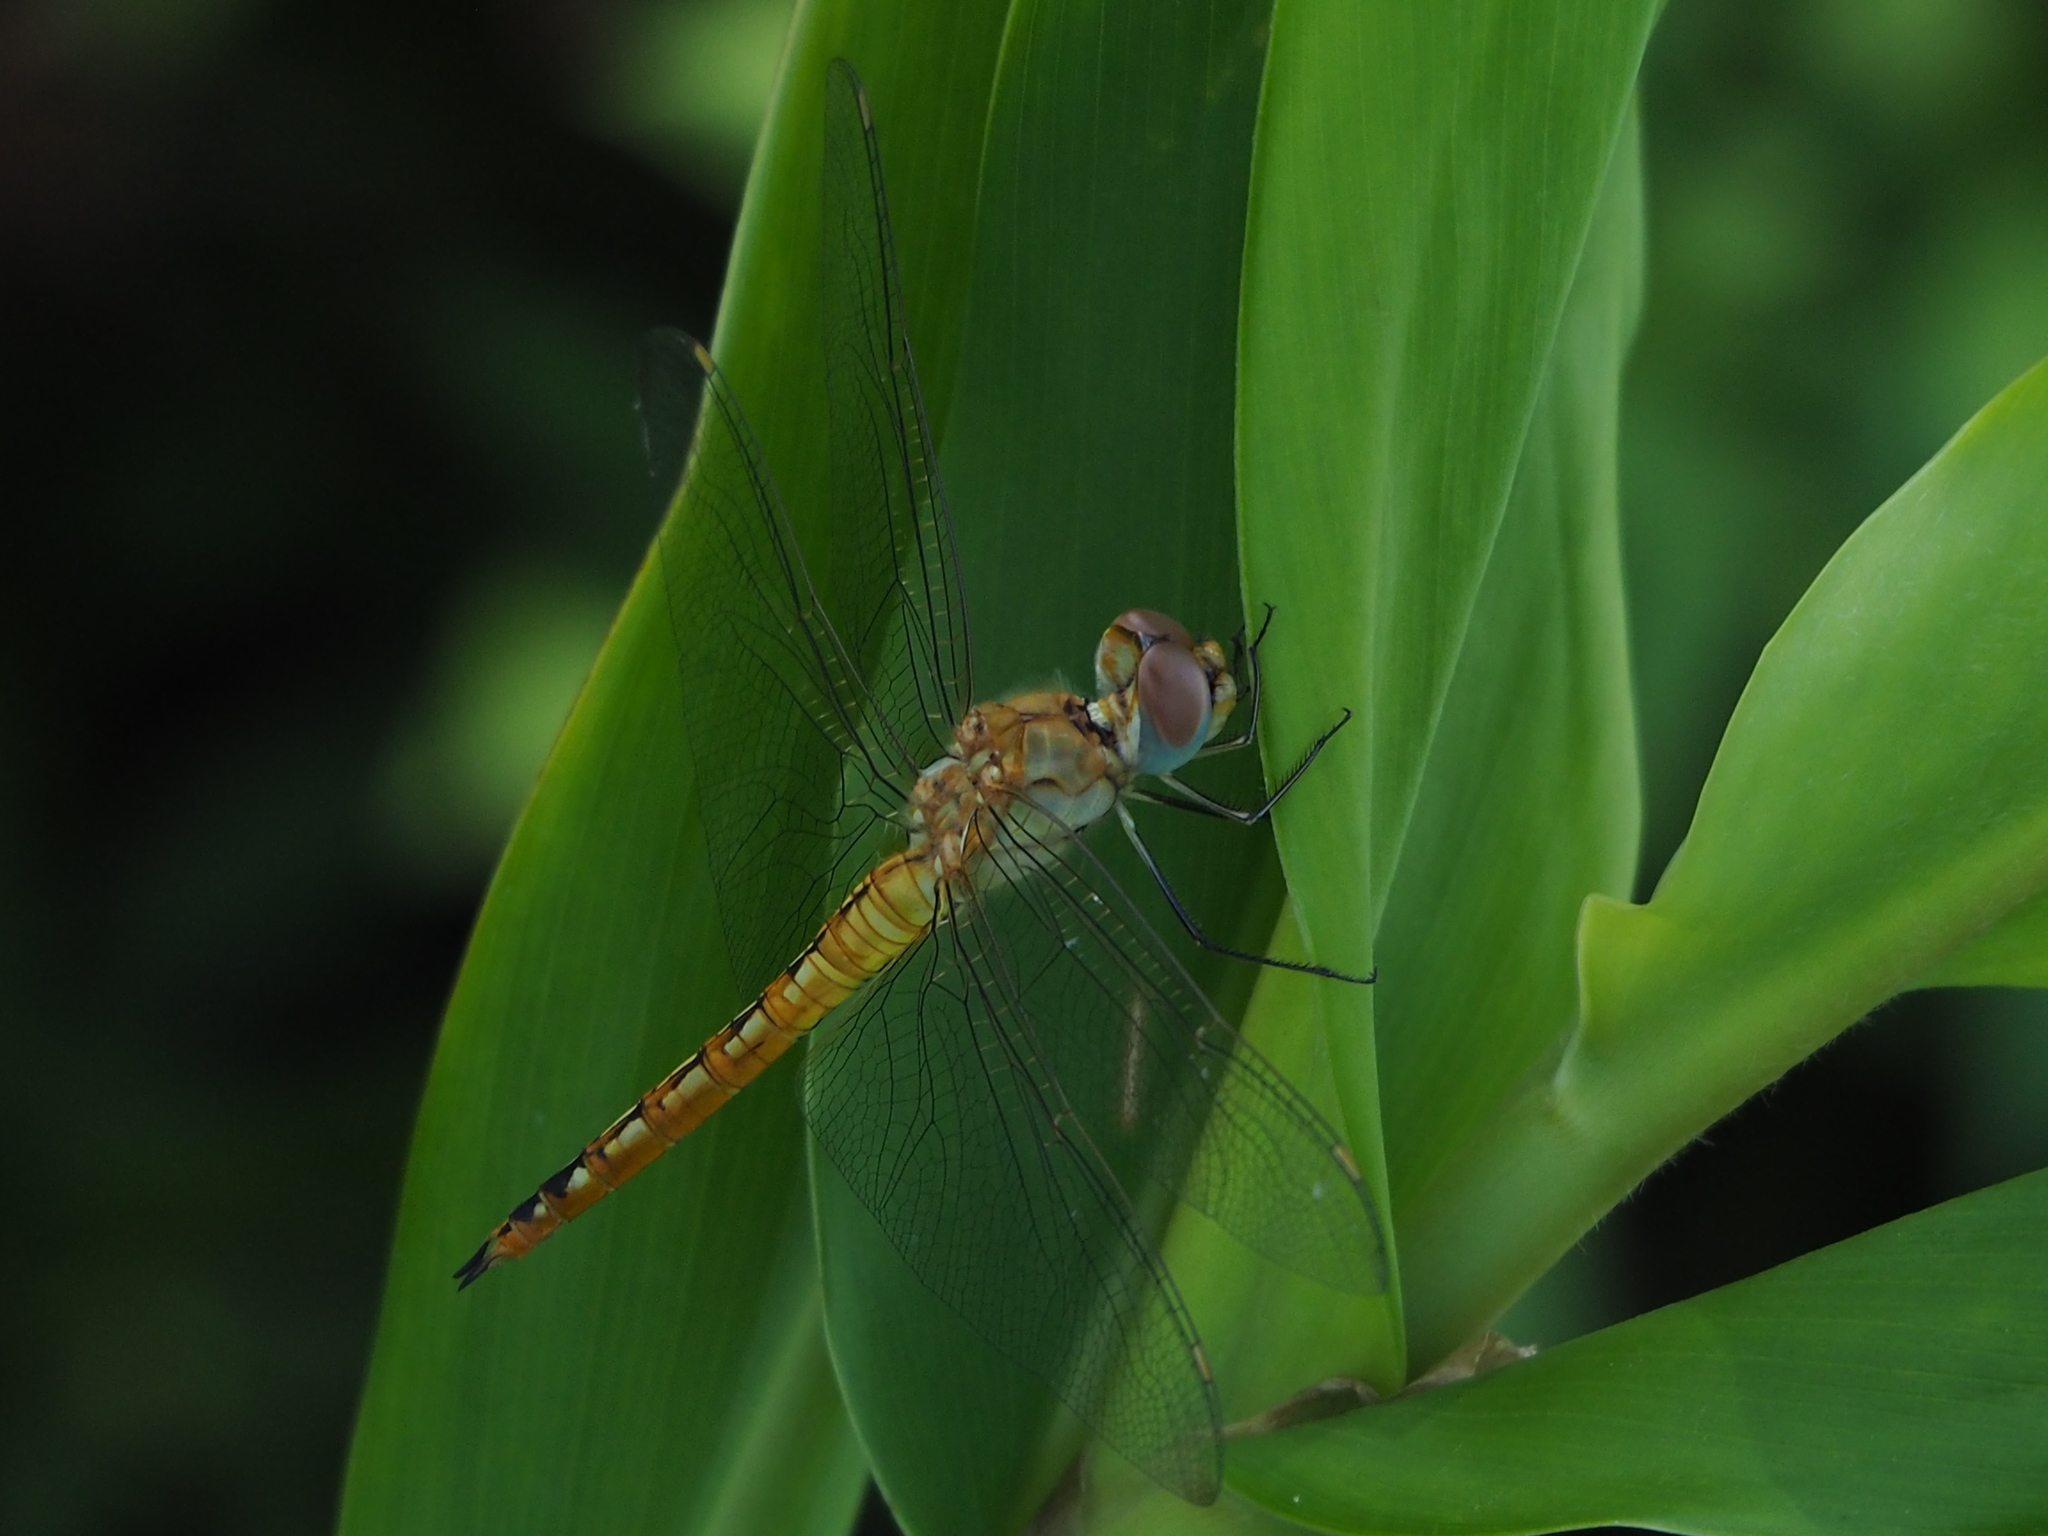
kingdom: Animalia
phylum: Arthropoda
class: Insecta
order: Odonata
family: Libellulidae
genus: Pantala
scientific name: Pantala flavescens
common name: Wandering glider
